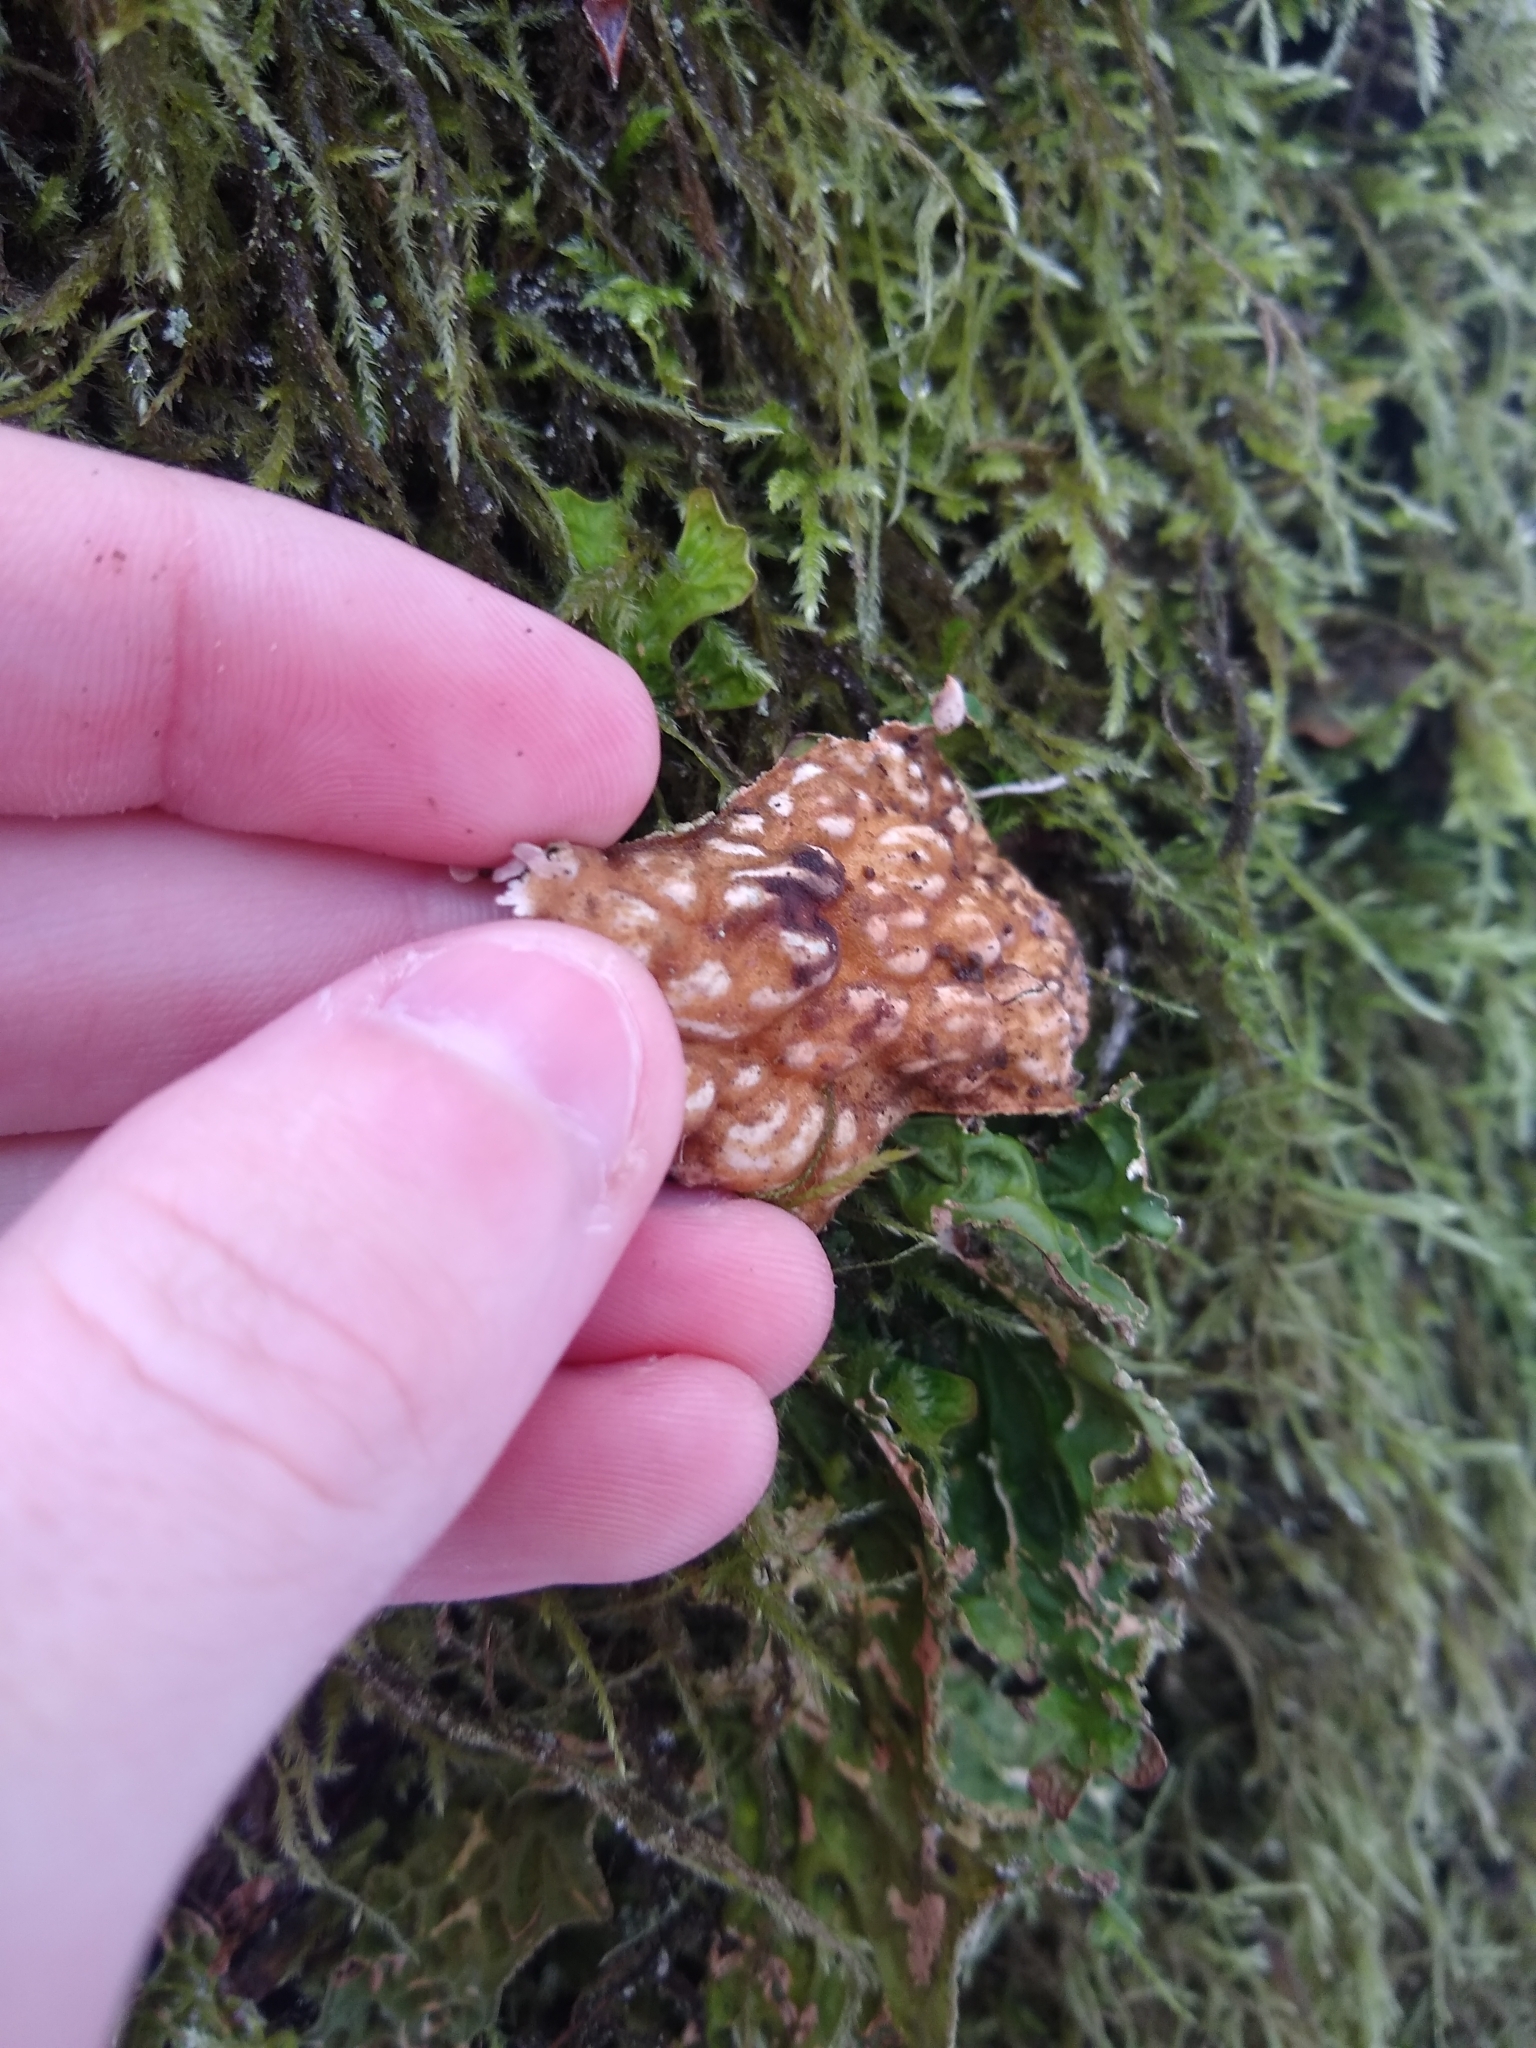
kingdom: Fungi
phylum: Ascomycota
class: Lecanoromycetes
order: Peltigerales
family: Lobariaceae
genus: Lobaria
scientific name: Lobaria pulmonaria
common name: Lungwort
